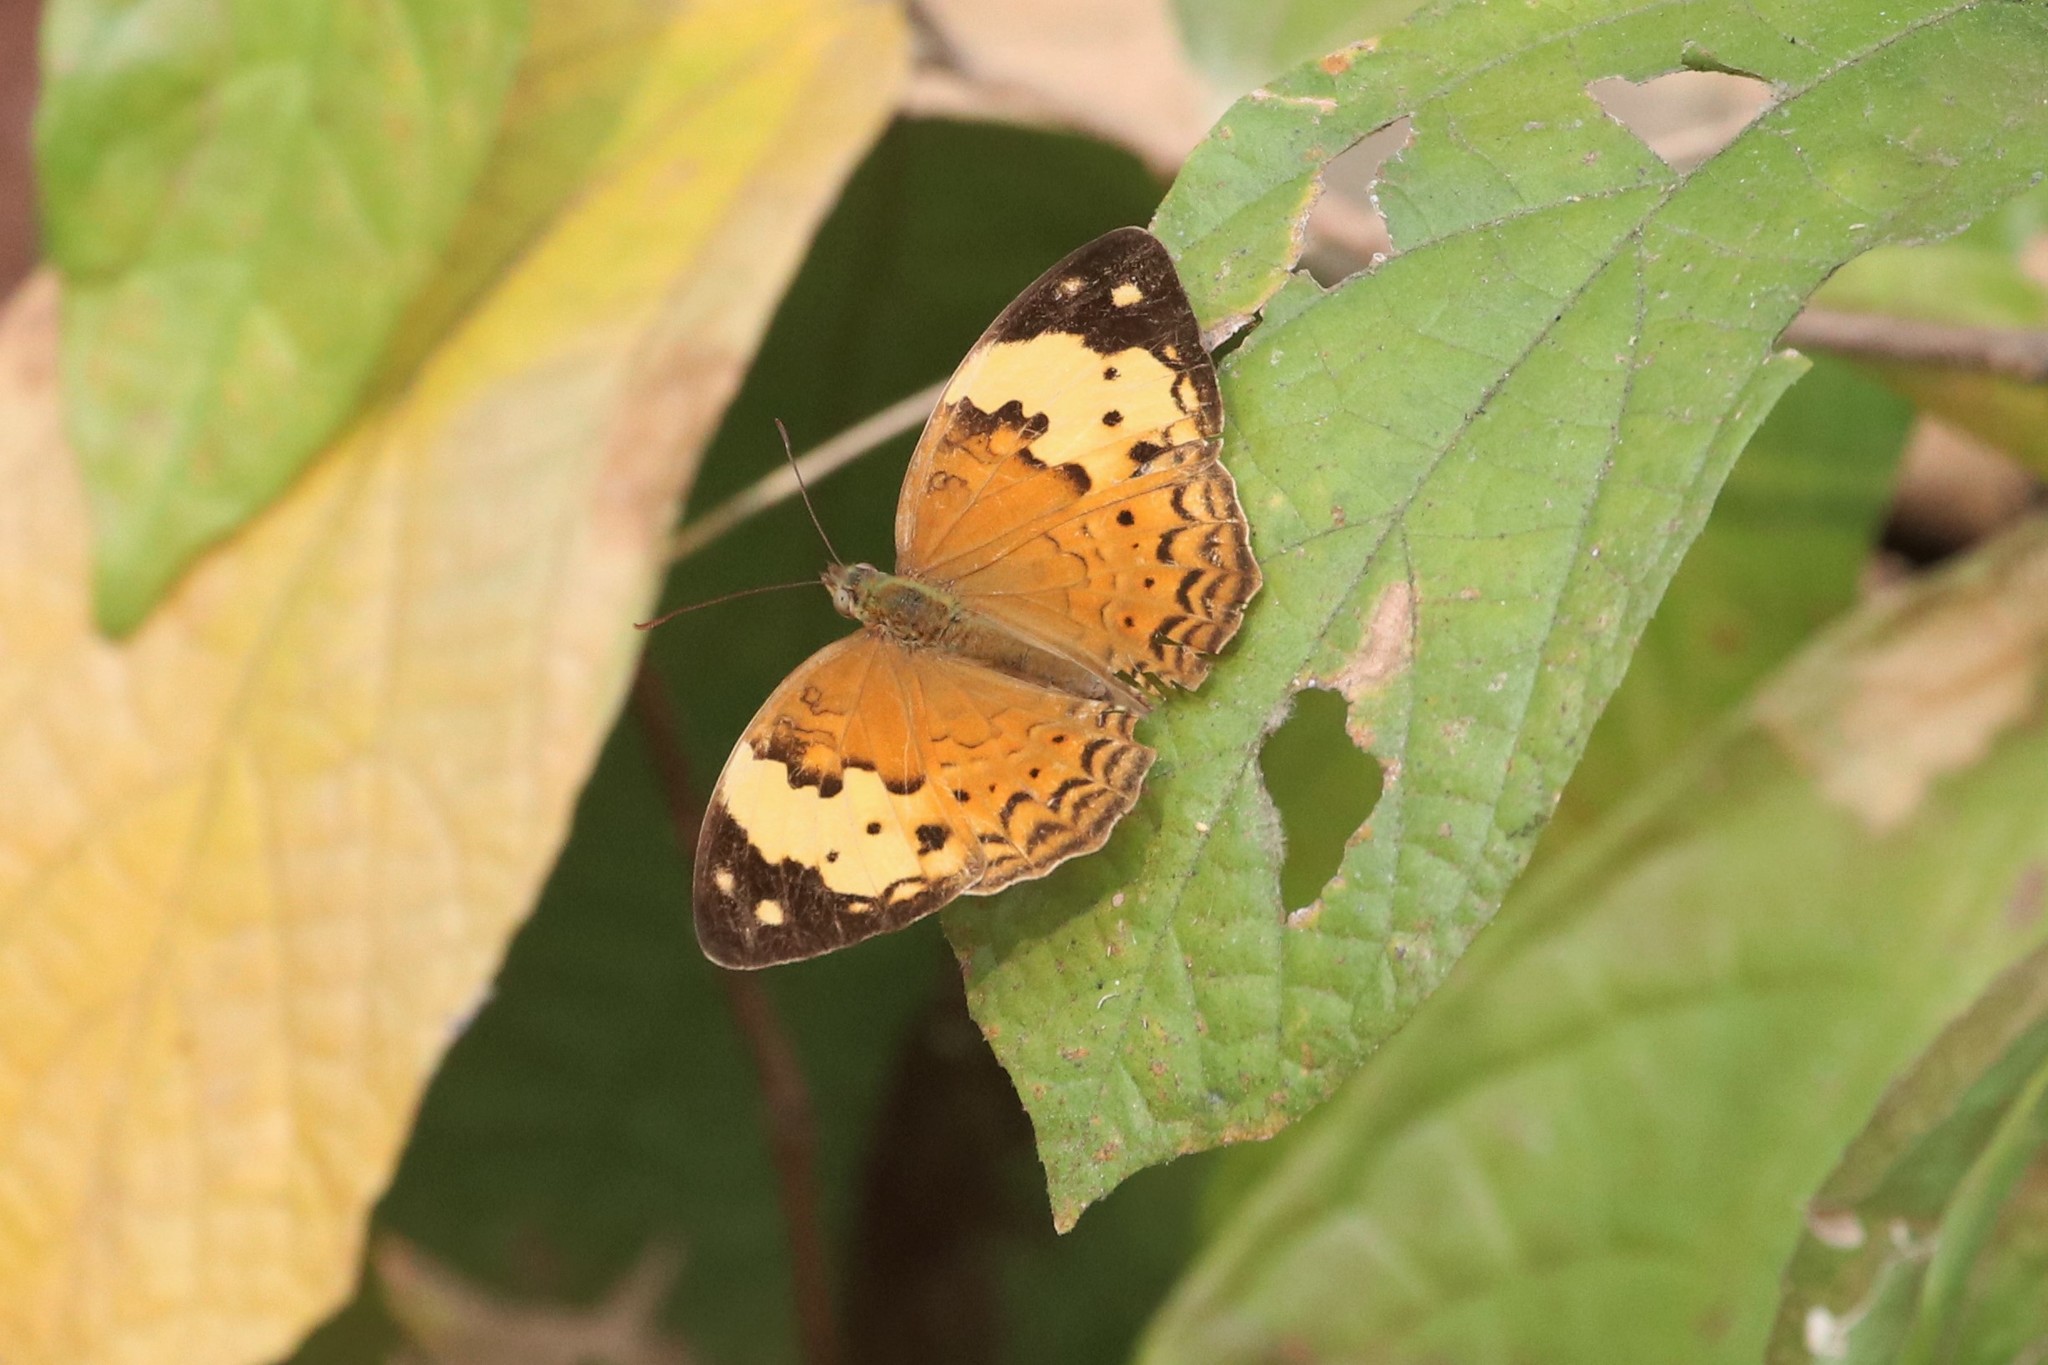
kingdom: Animalia
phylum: Arthropoda
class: Insecta
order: Lepidoptera
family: Nymphalidae
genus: Cupha
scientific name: Cupha erymanthis
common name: Rustic
